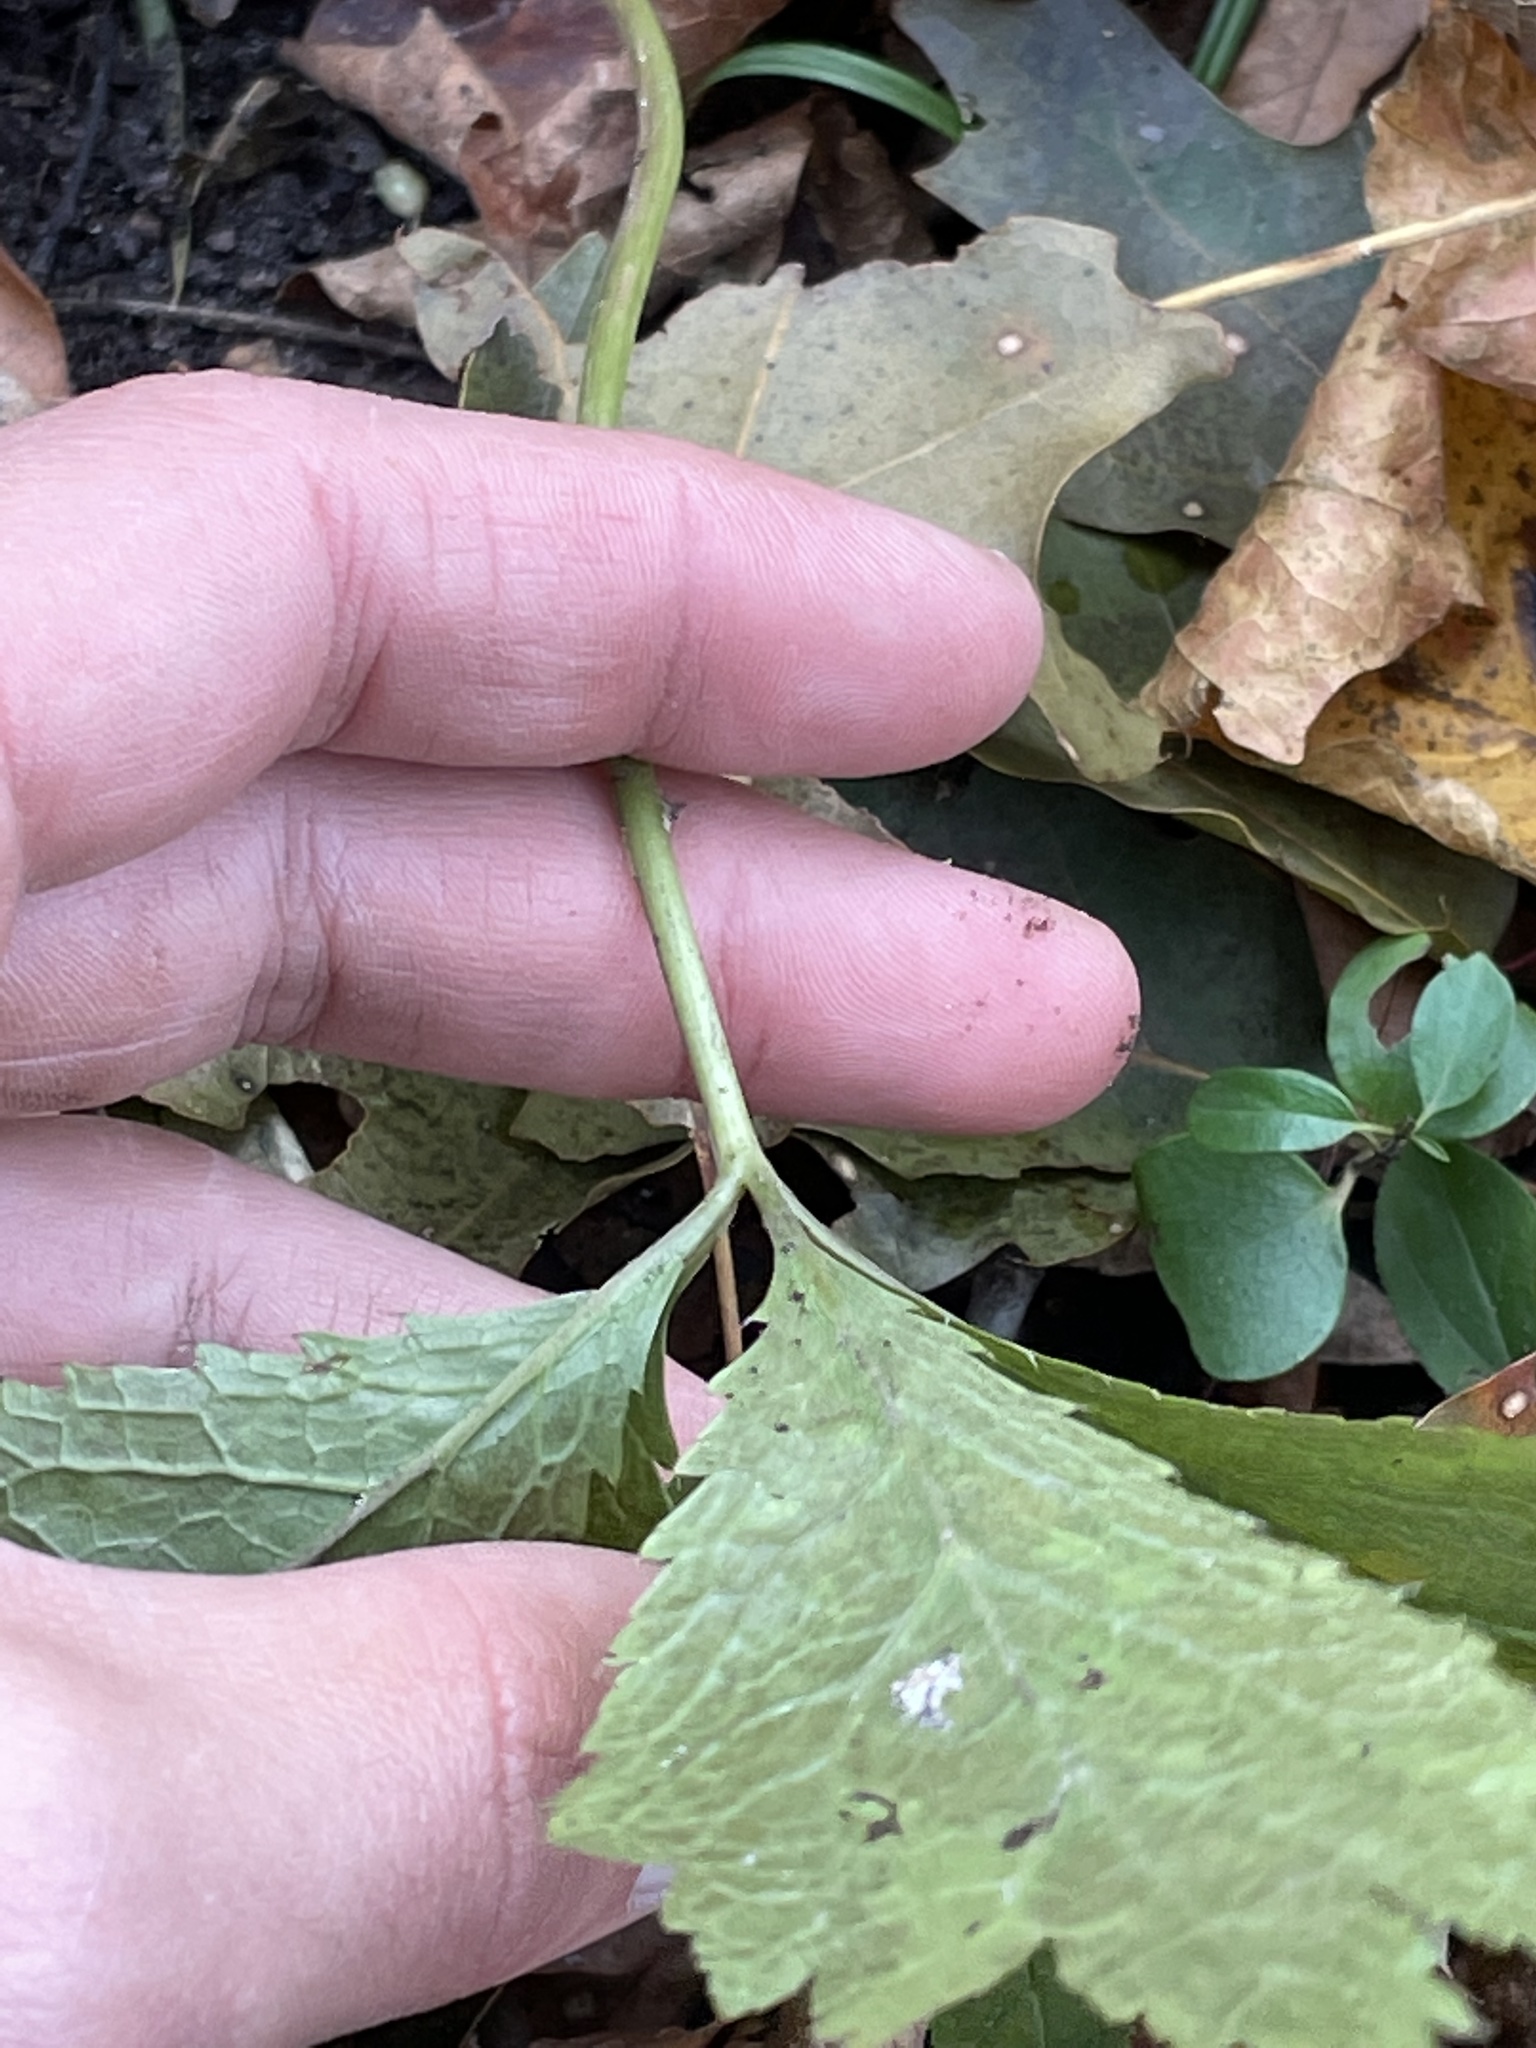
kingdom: Plantae
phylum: Tracheophyta
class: Magnoliopsida
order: Ranunculales
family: Ranunculaceae
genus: Anemone
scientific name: Anemone virginiana
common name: Tall anemone
